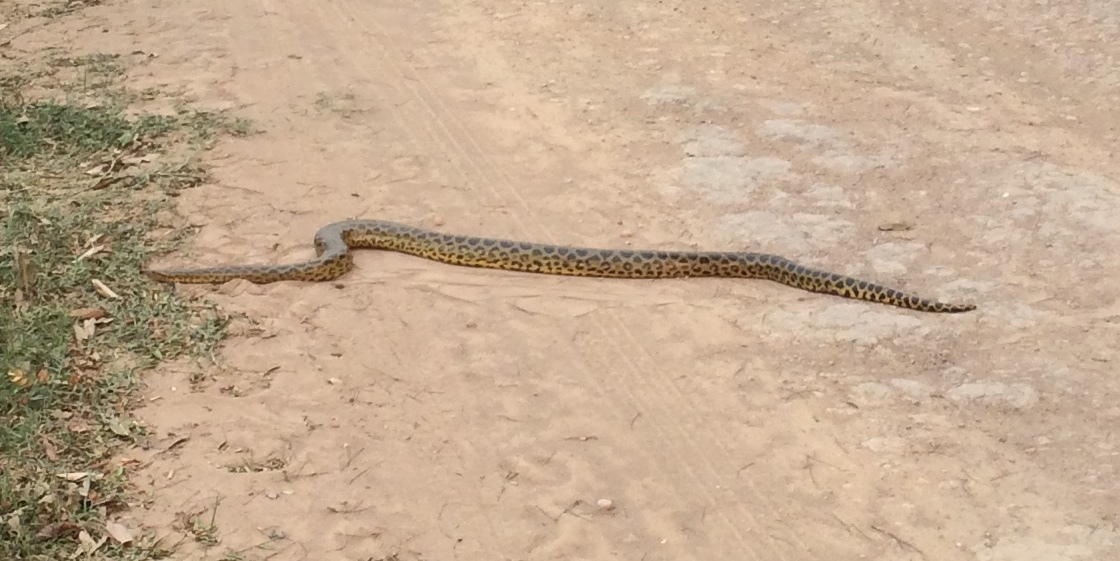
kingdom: Animalia
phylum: Chordata
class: Squamata
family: Boidae
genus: Eunectes
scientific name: Eunectes notaeus
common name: Yellow anaconda
